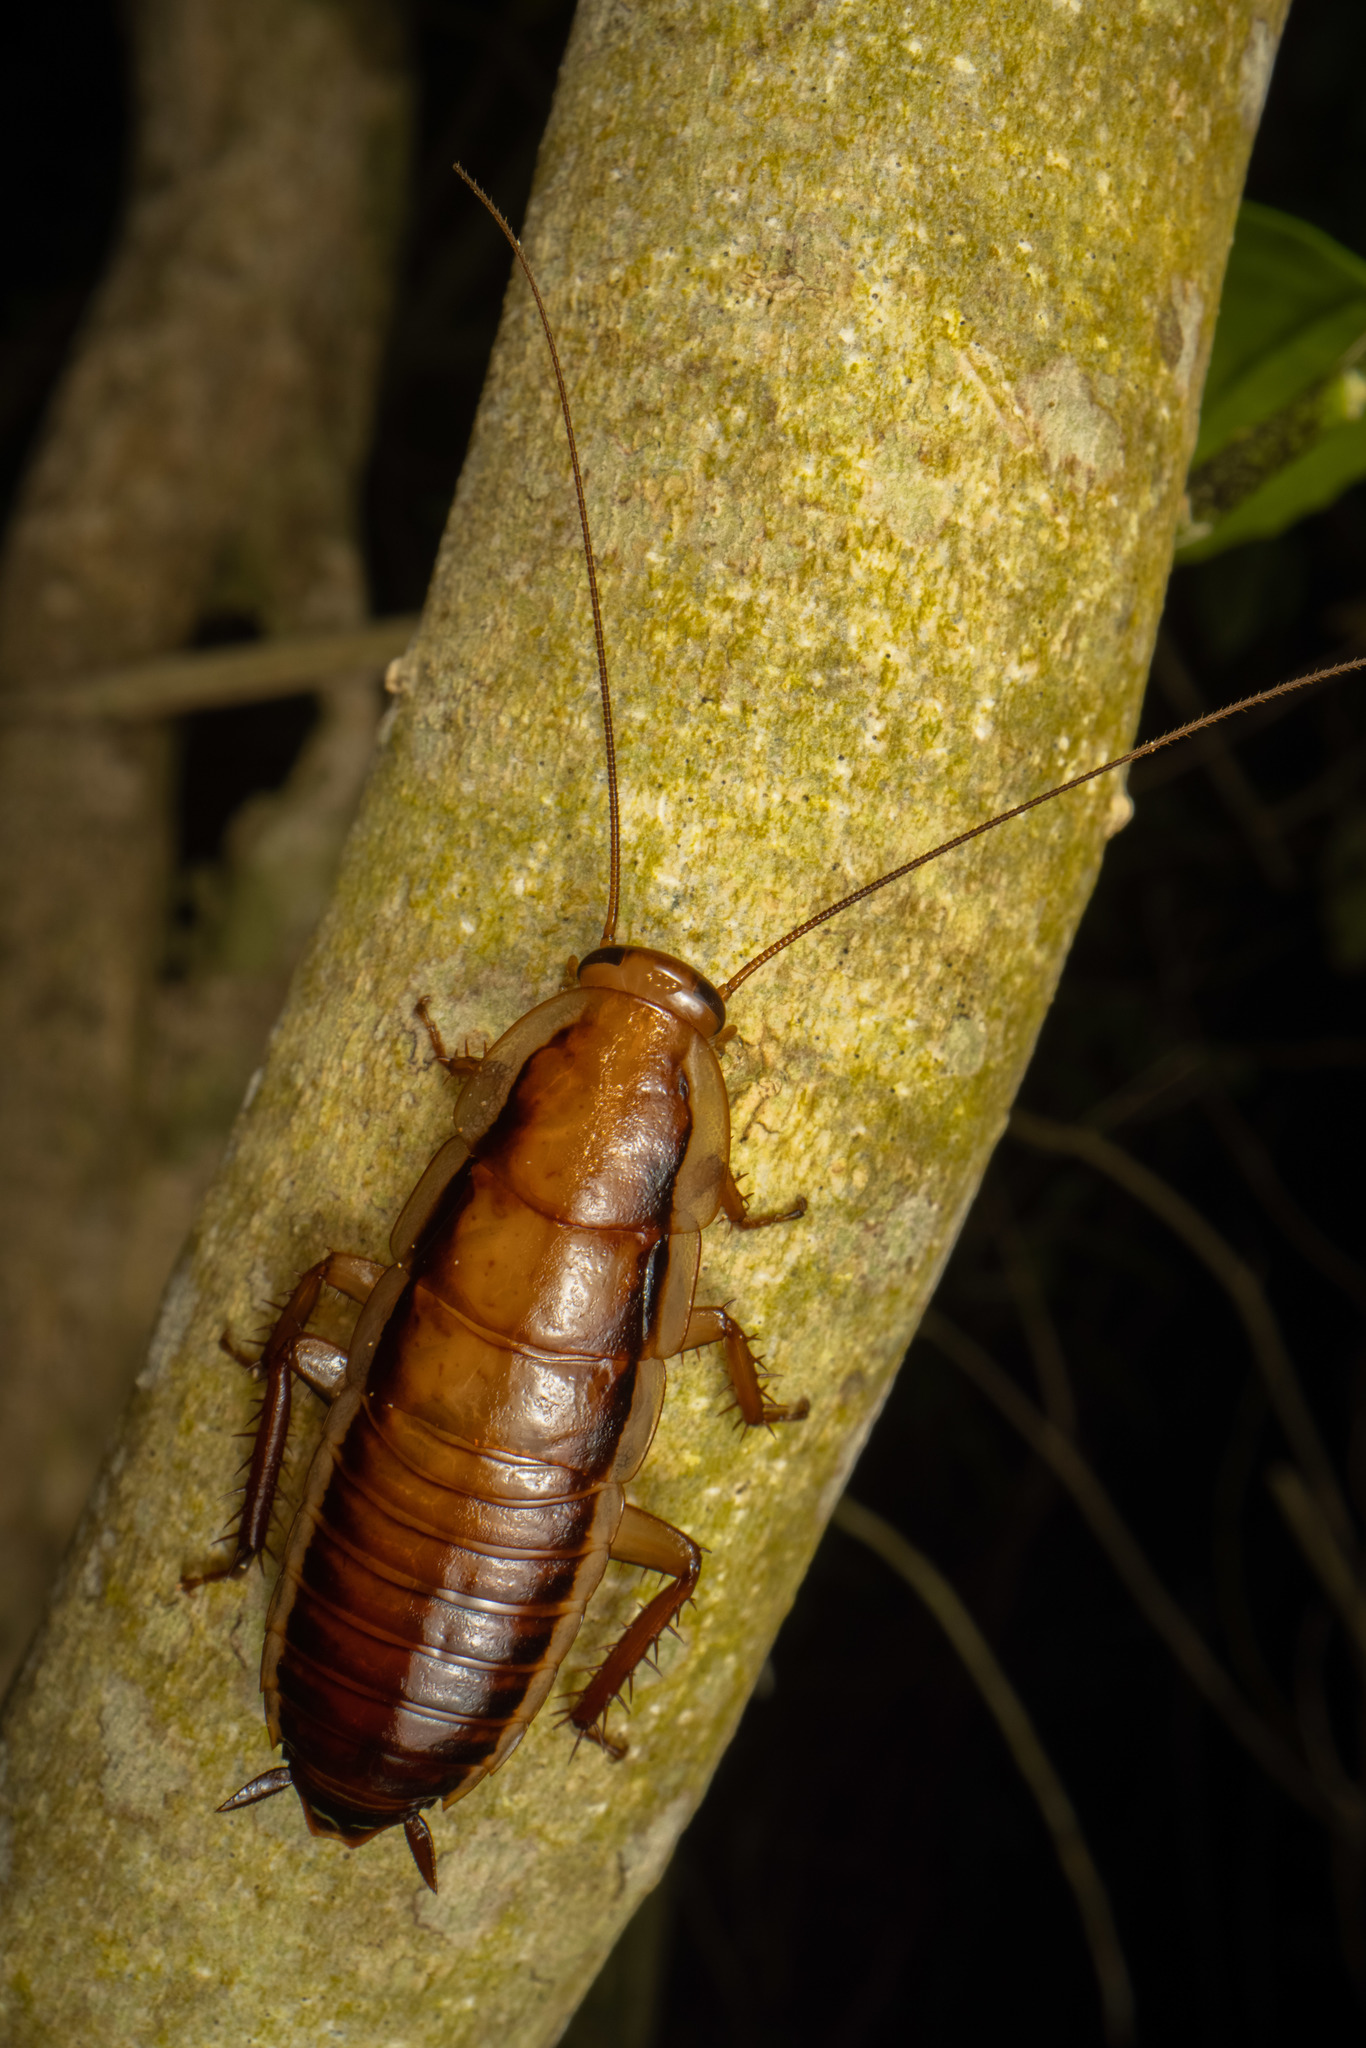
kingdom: Animalia
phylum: Arthropoda
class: Insecta
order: Blattodea
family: Blattidae
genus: Drymaplaneta
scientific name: Drymaplaneta heydeniana
